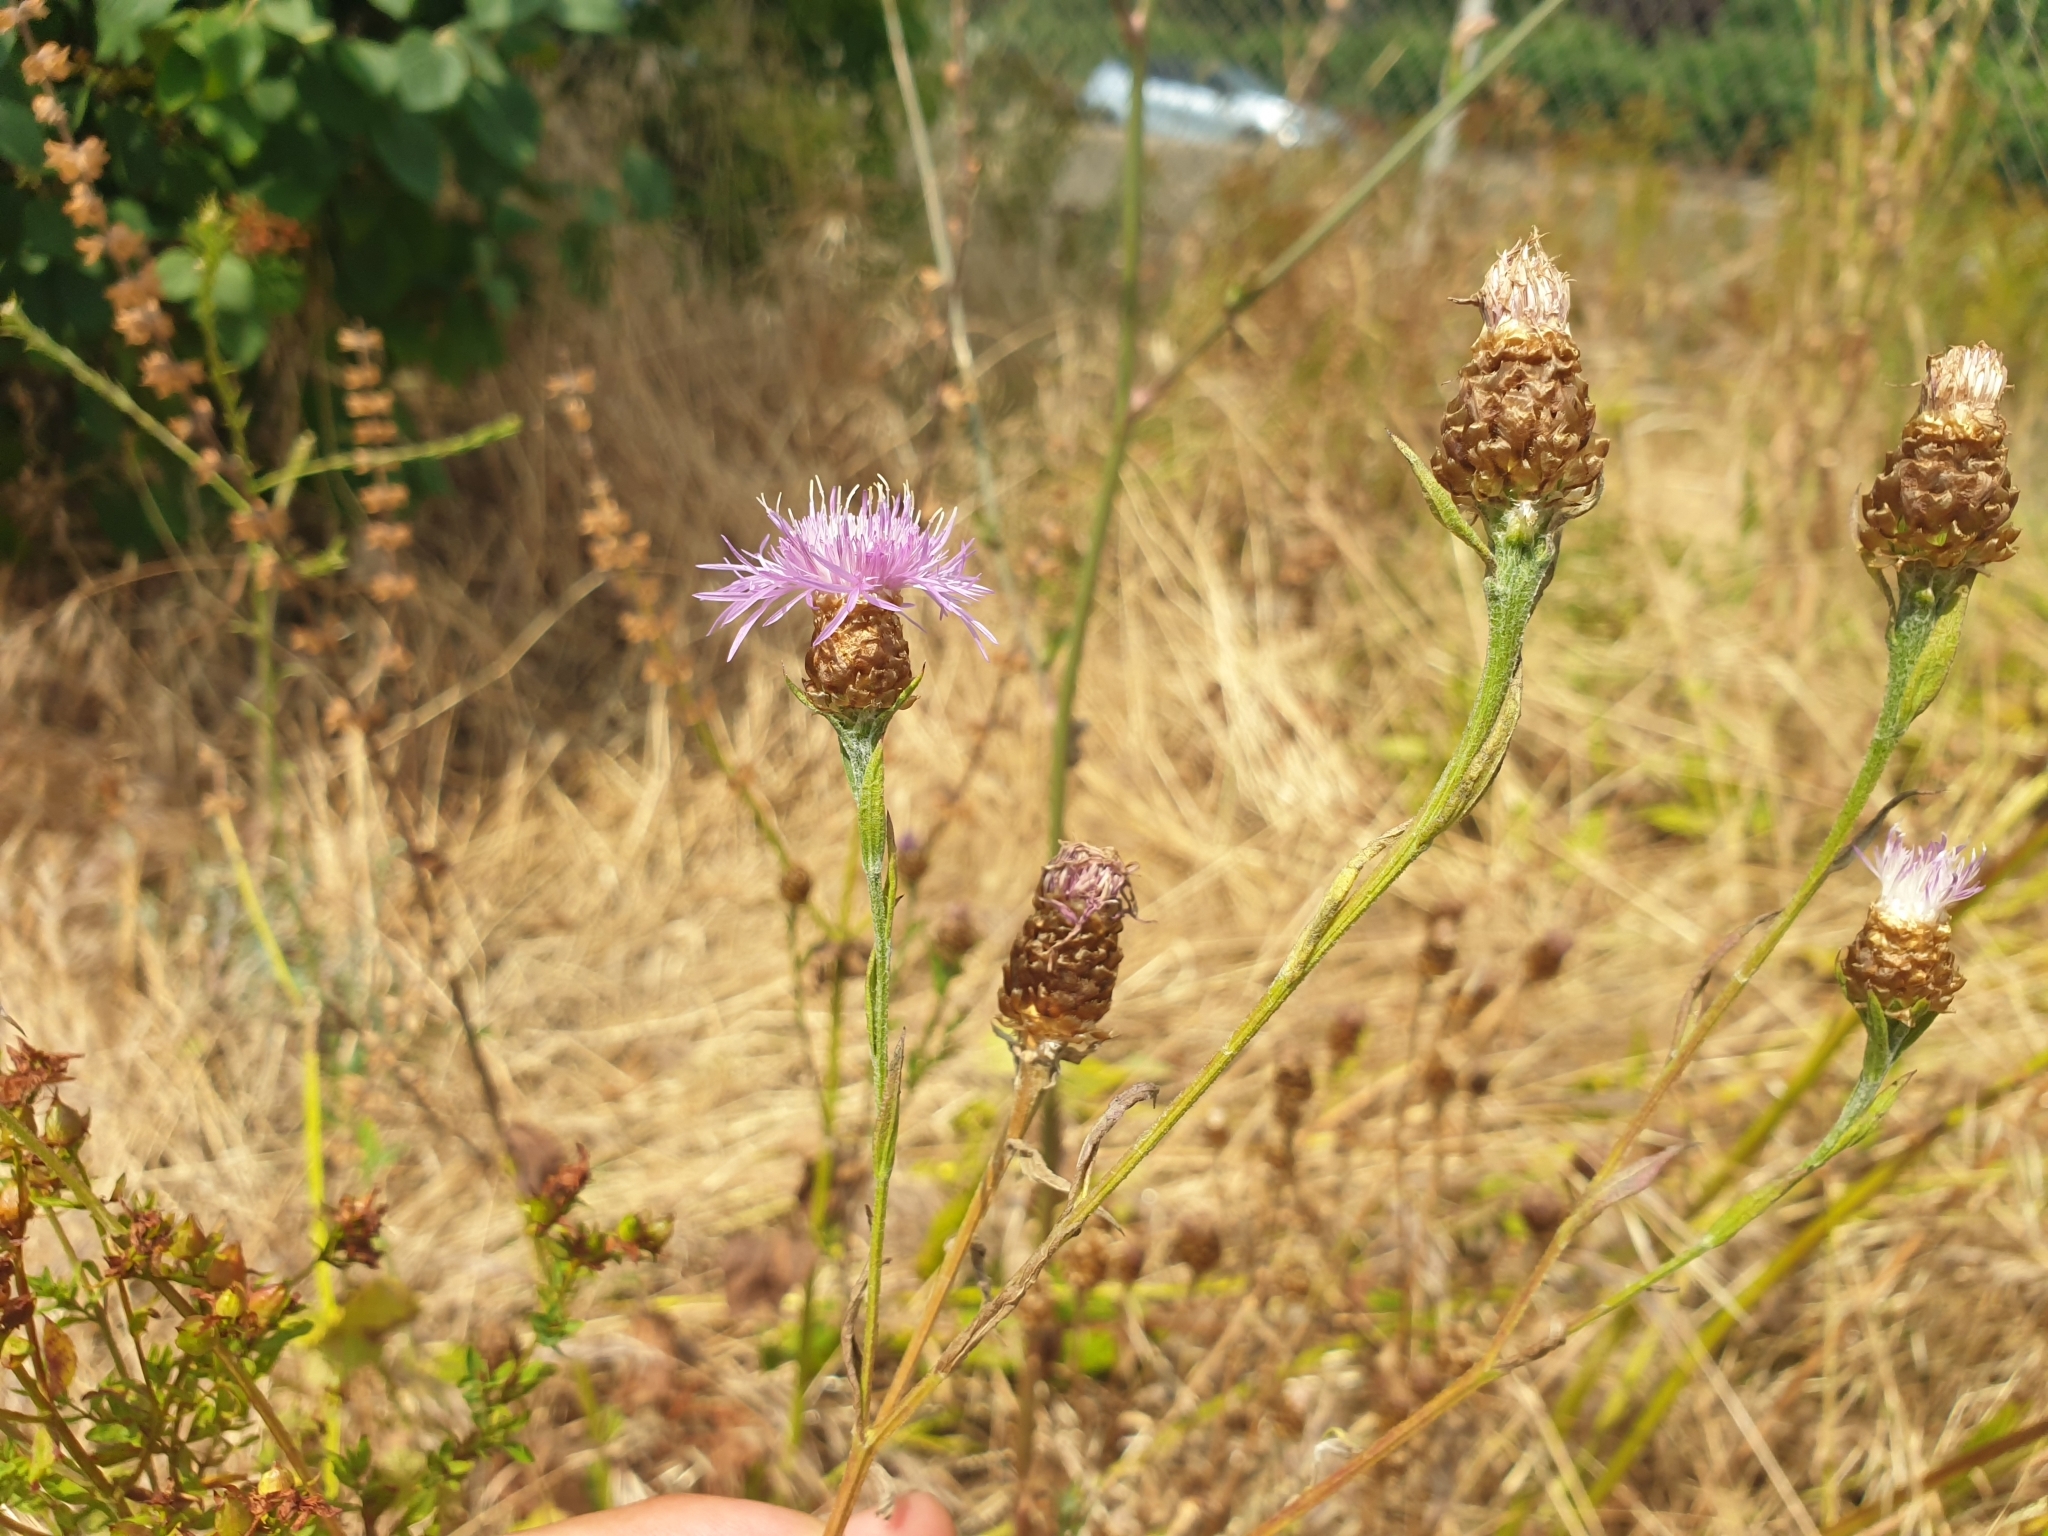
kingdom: Plantae
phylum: Tracheophyta
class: Magnoliopsida
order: Asterales
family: Asteraceae
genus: Centaurea
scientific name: Centaurea jacea
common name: Brown knapweed
